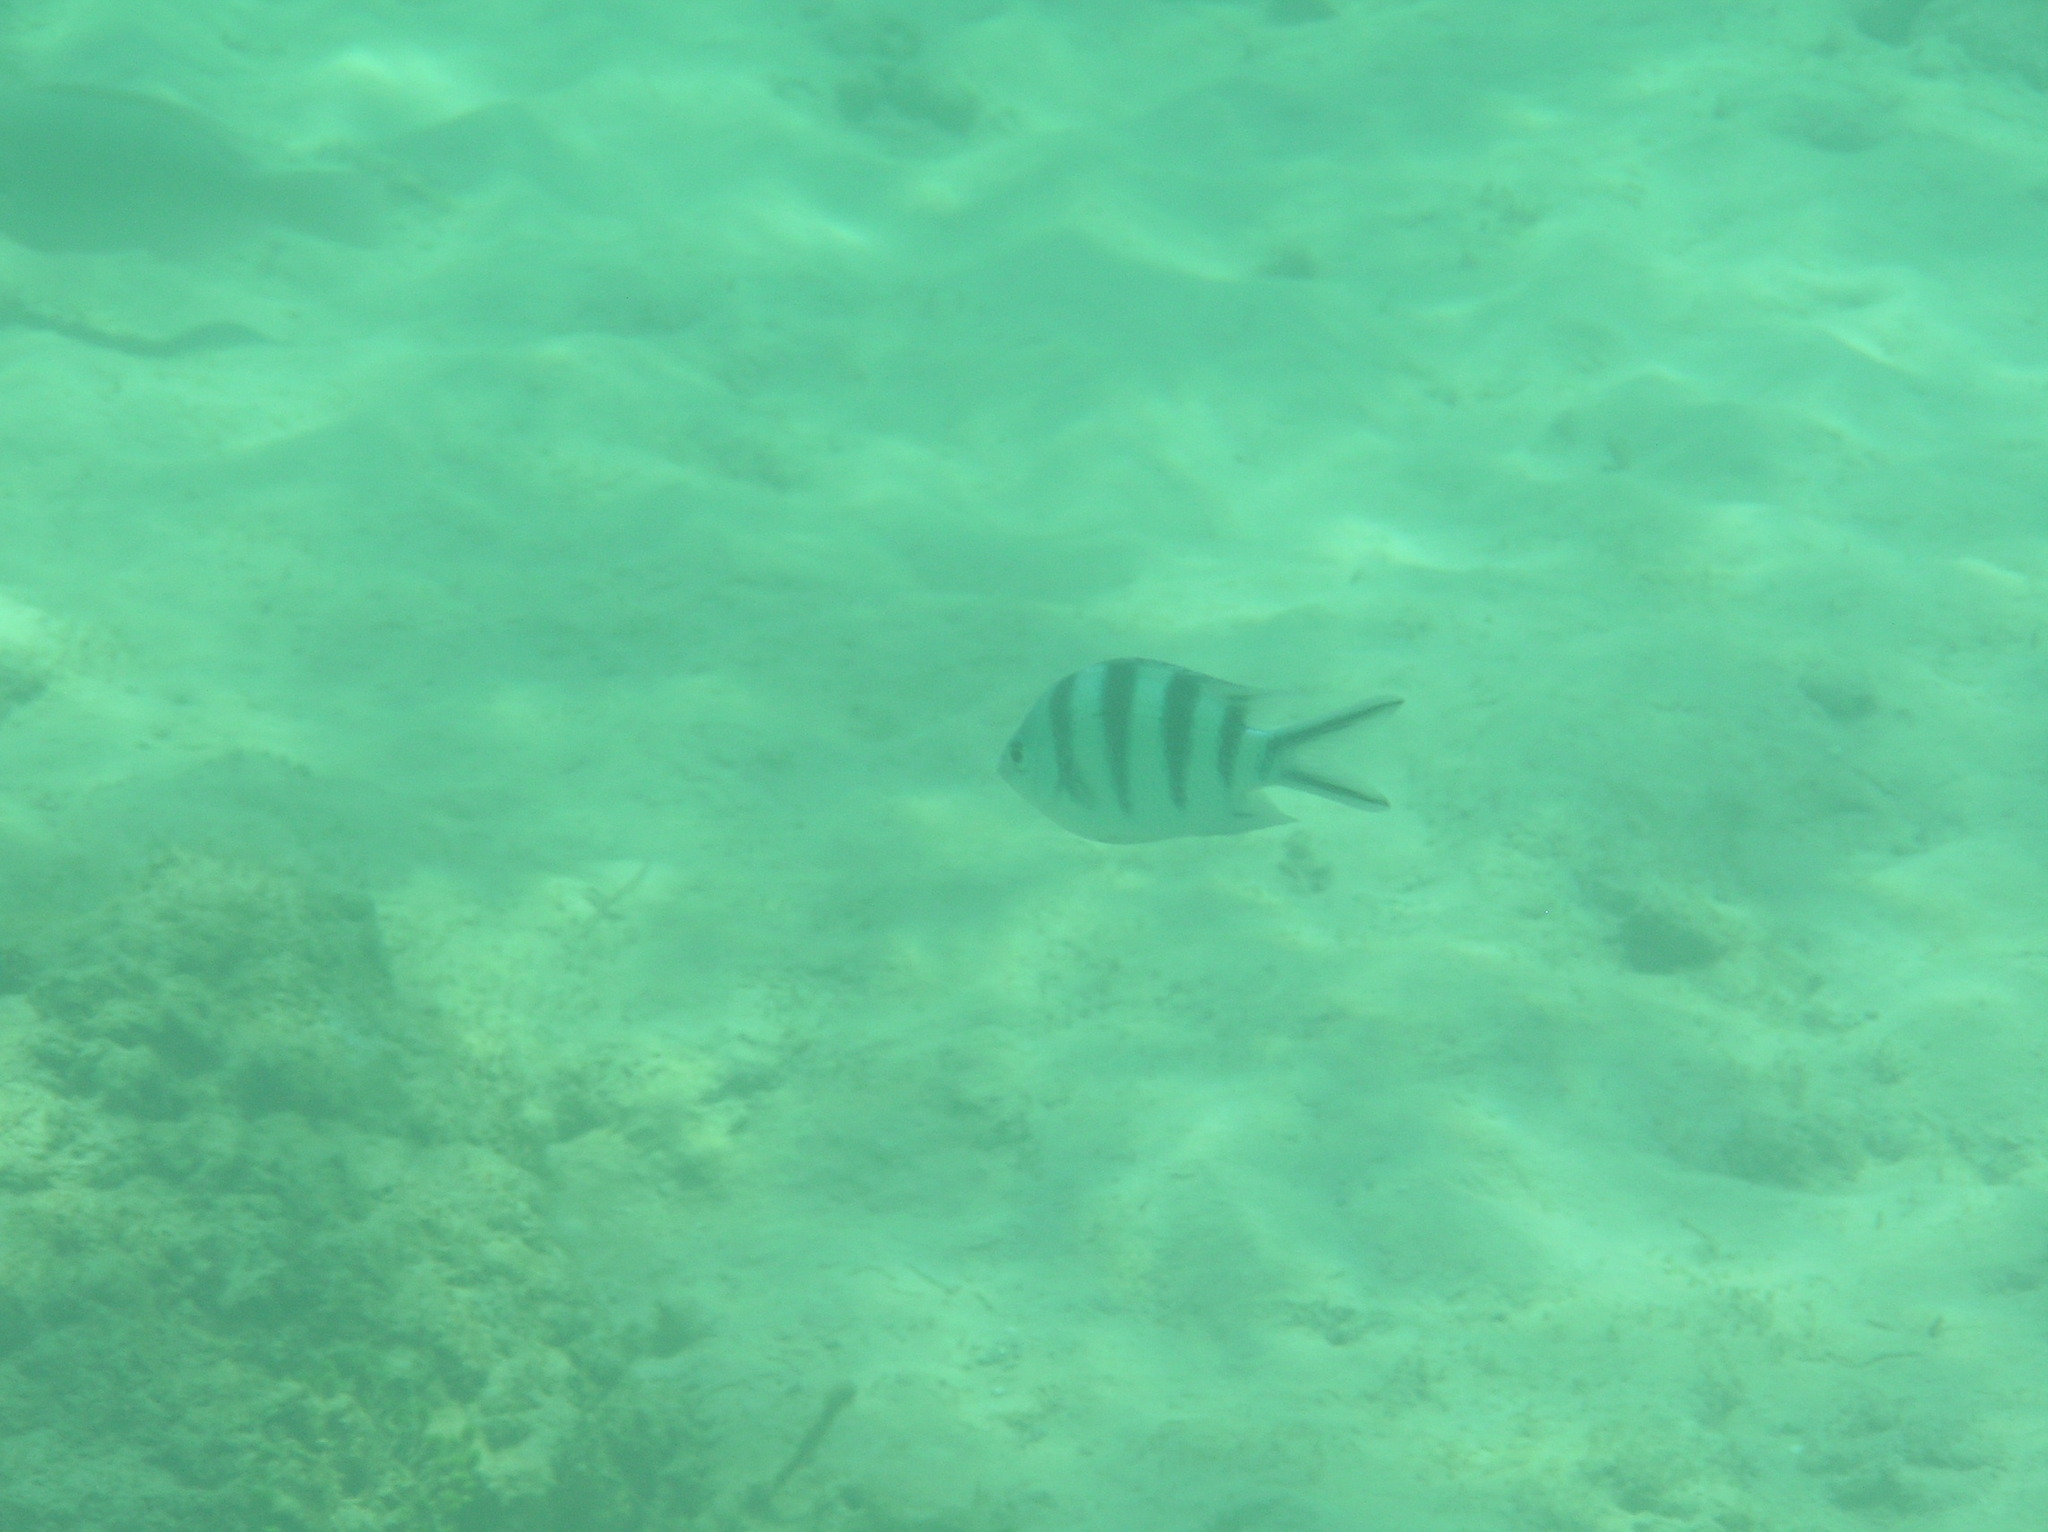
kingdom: Animalia
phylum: Chordata
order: Perciformes
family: Pomacentridae
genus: Abudefduf
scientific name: Abudefduf sexfasciatus
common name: Scissortail sergeant
